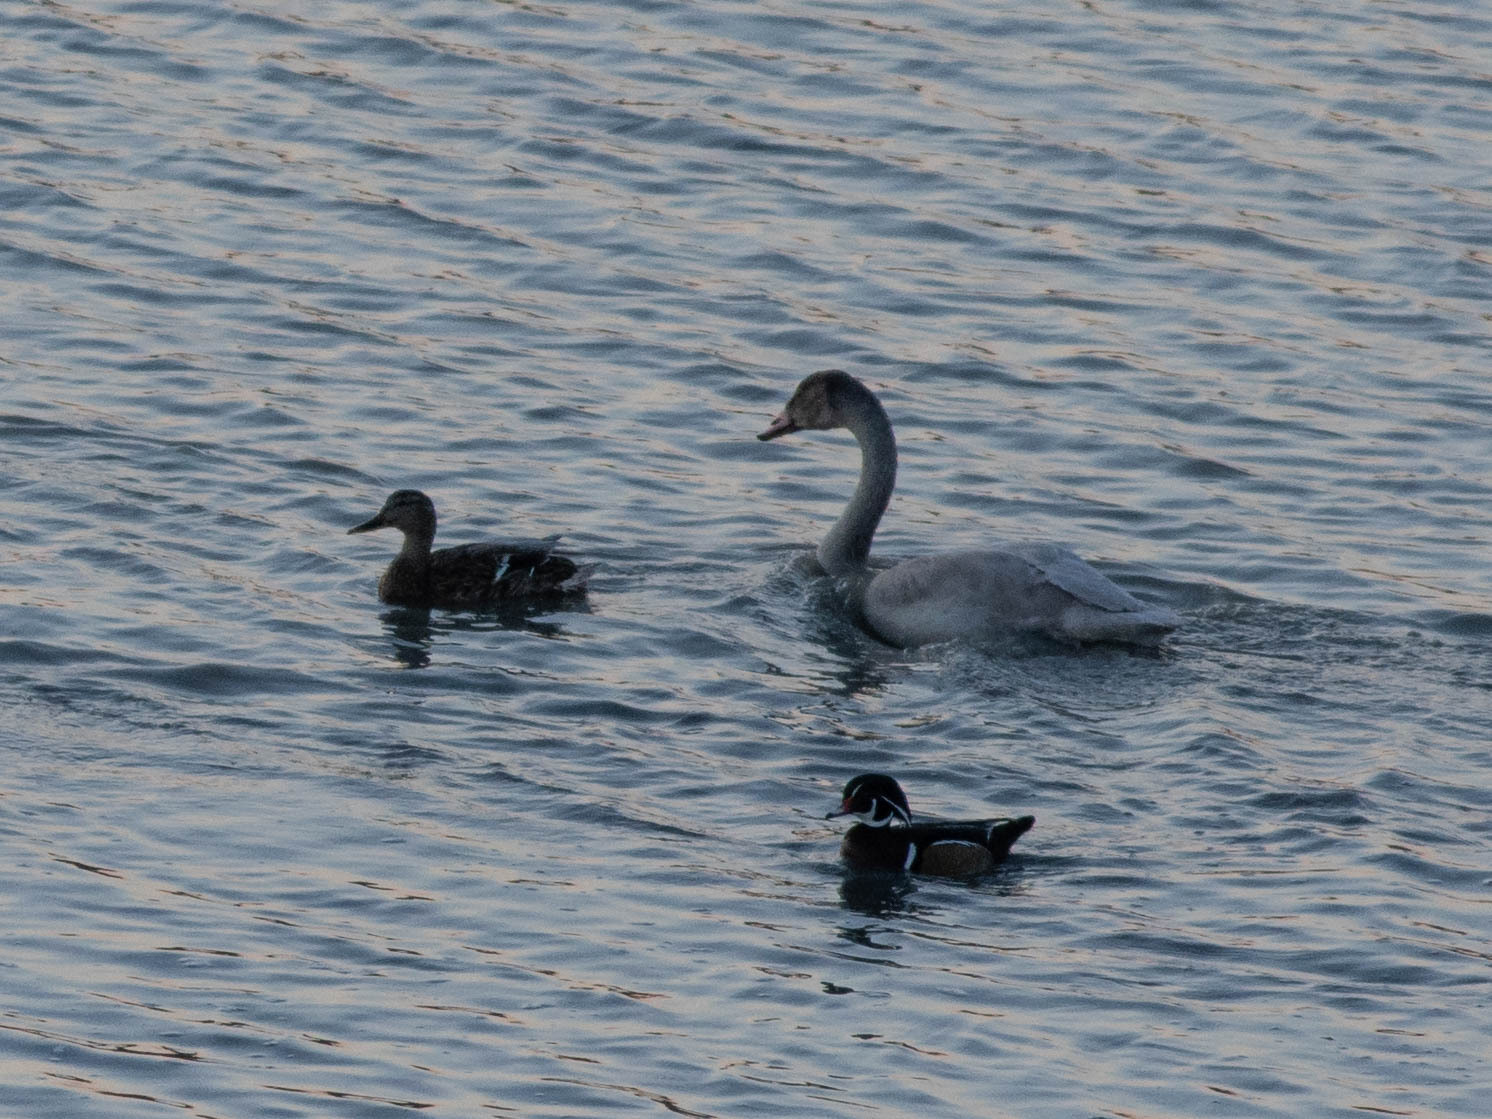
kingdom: Animalia
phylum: Chordata
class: Aves
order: Anseriformes
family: Anatidae
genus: Aix
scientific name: Aix sponsa
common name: Wood duck
